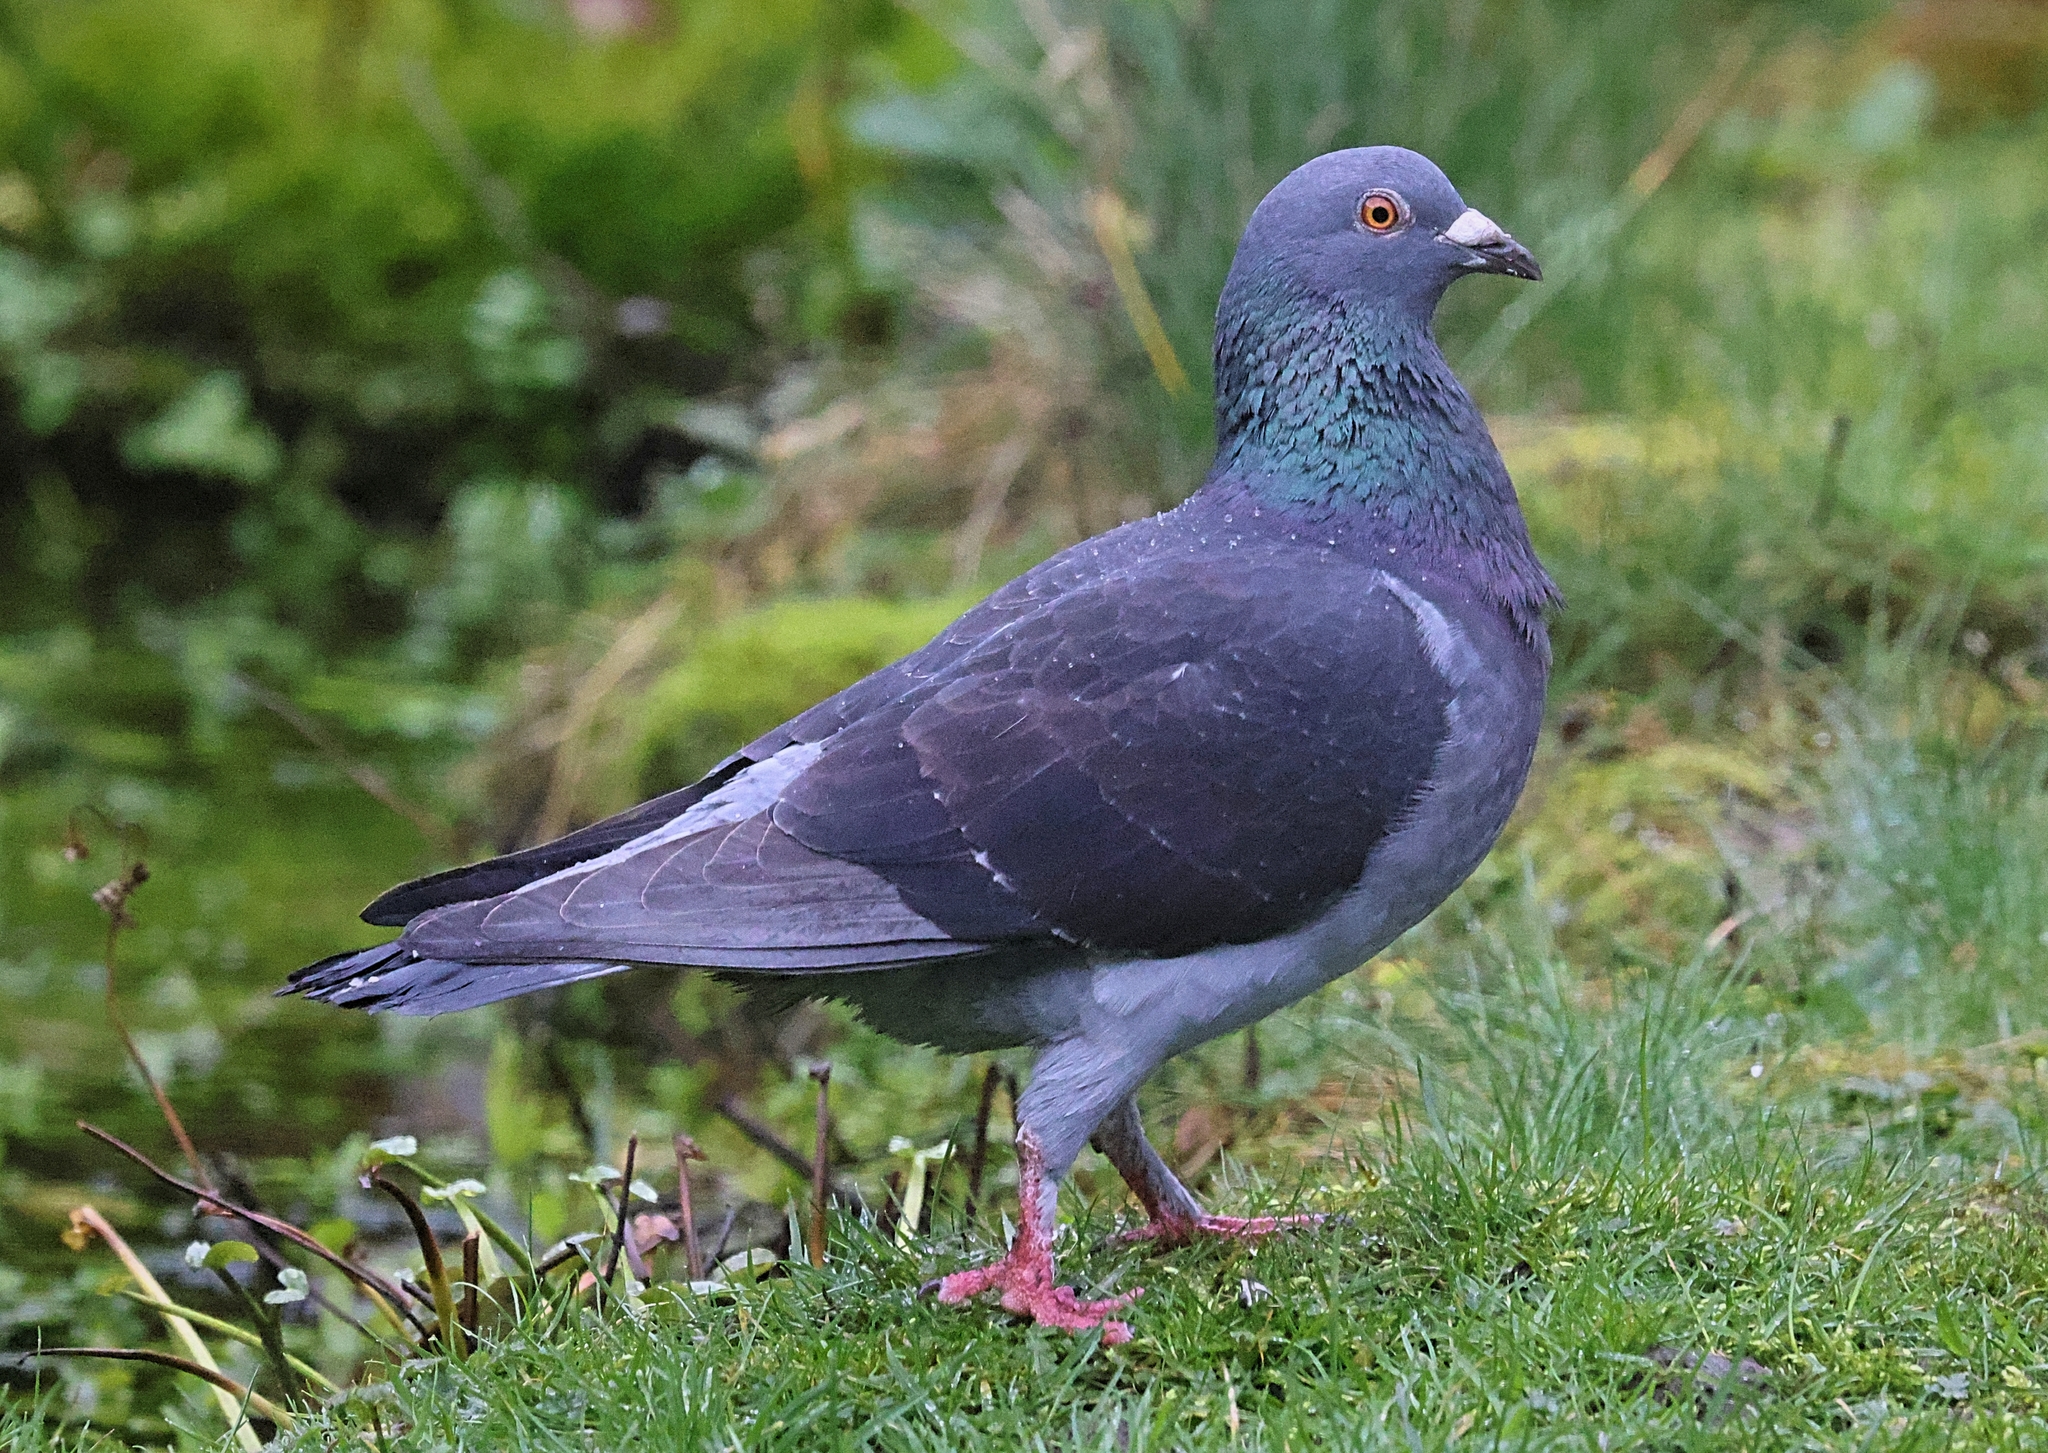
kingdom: Animalia
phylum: Chordata
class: Aves
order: Columbiformes
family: Columbidae
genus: Columba
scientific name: Columba livia
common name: Rock pigeon
